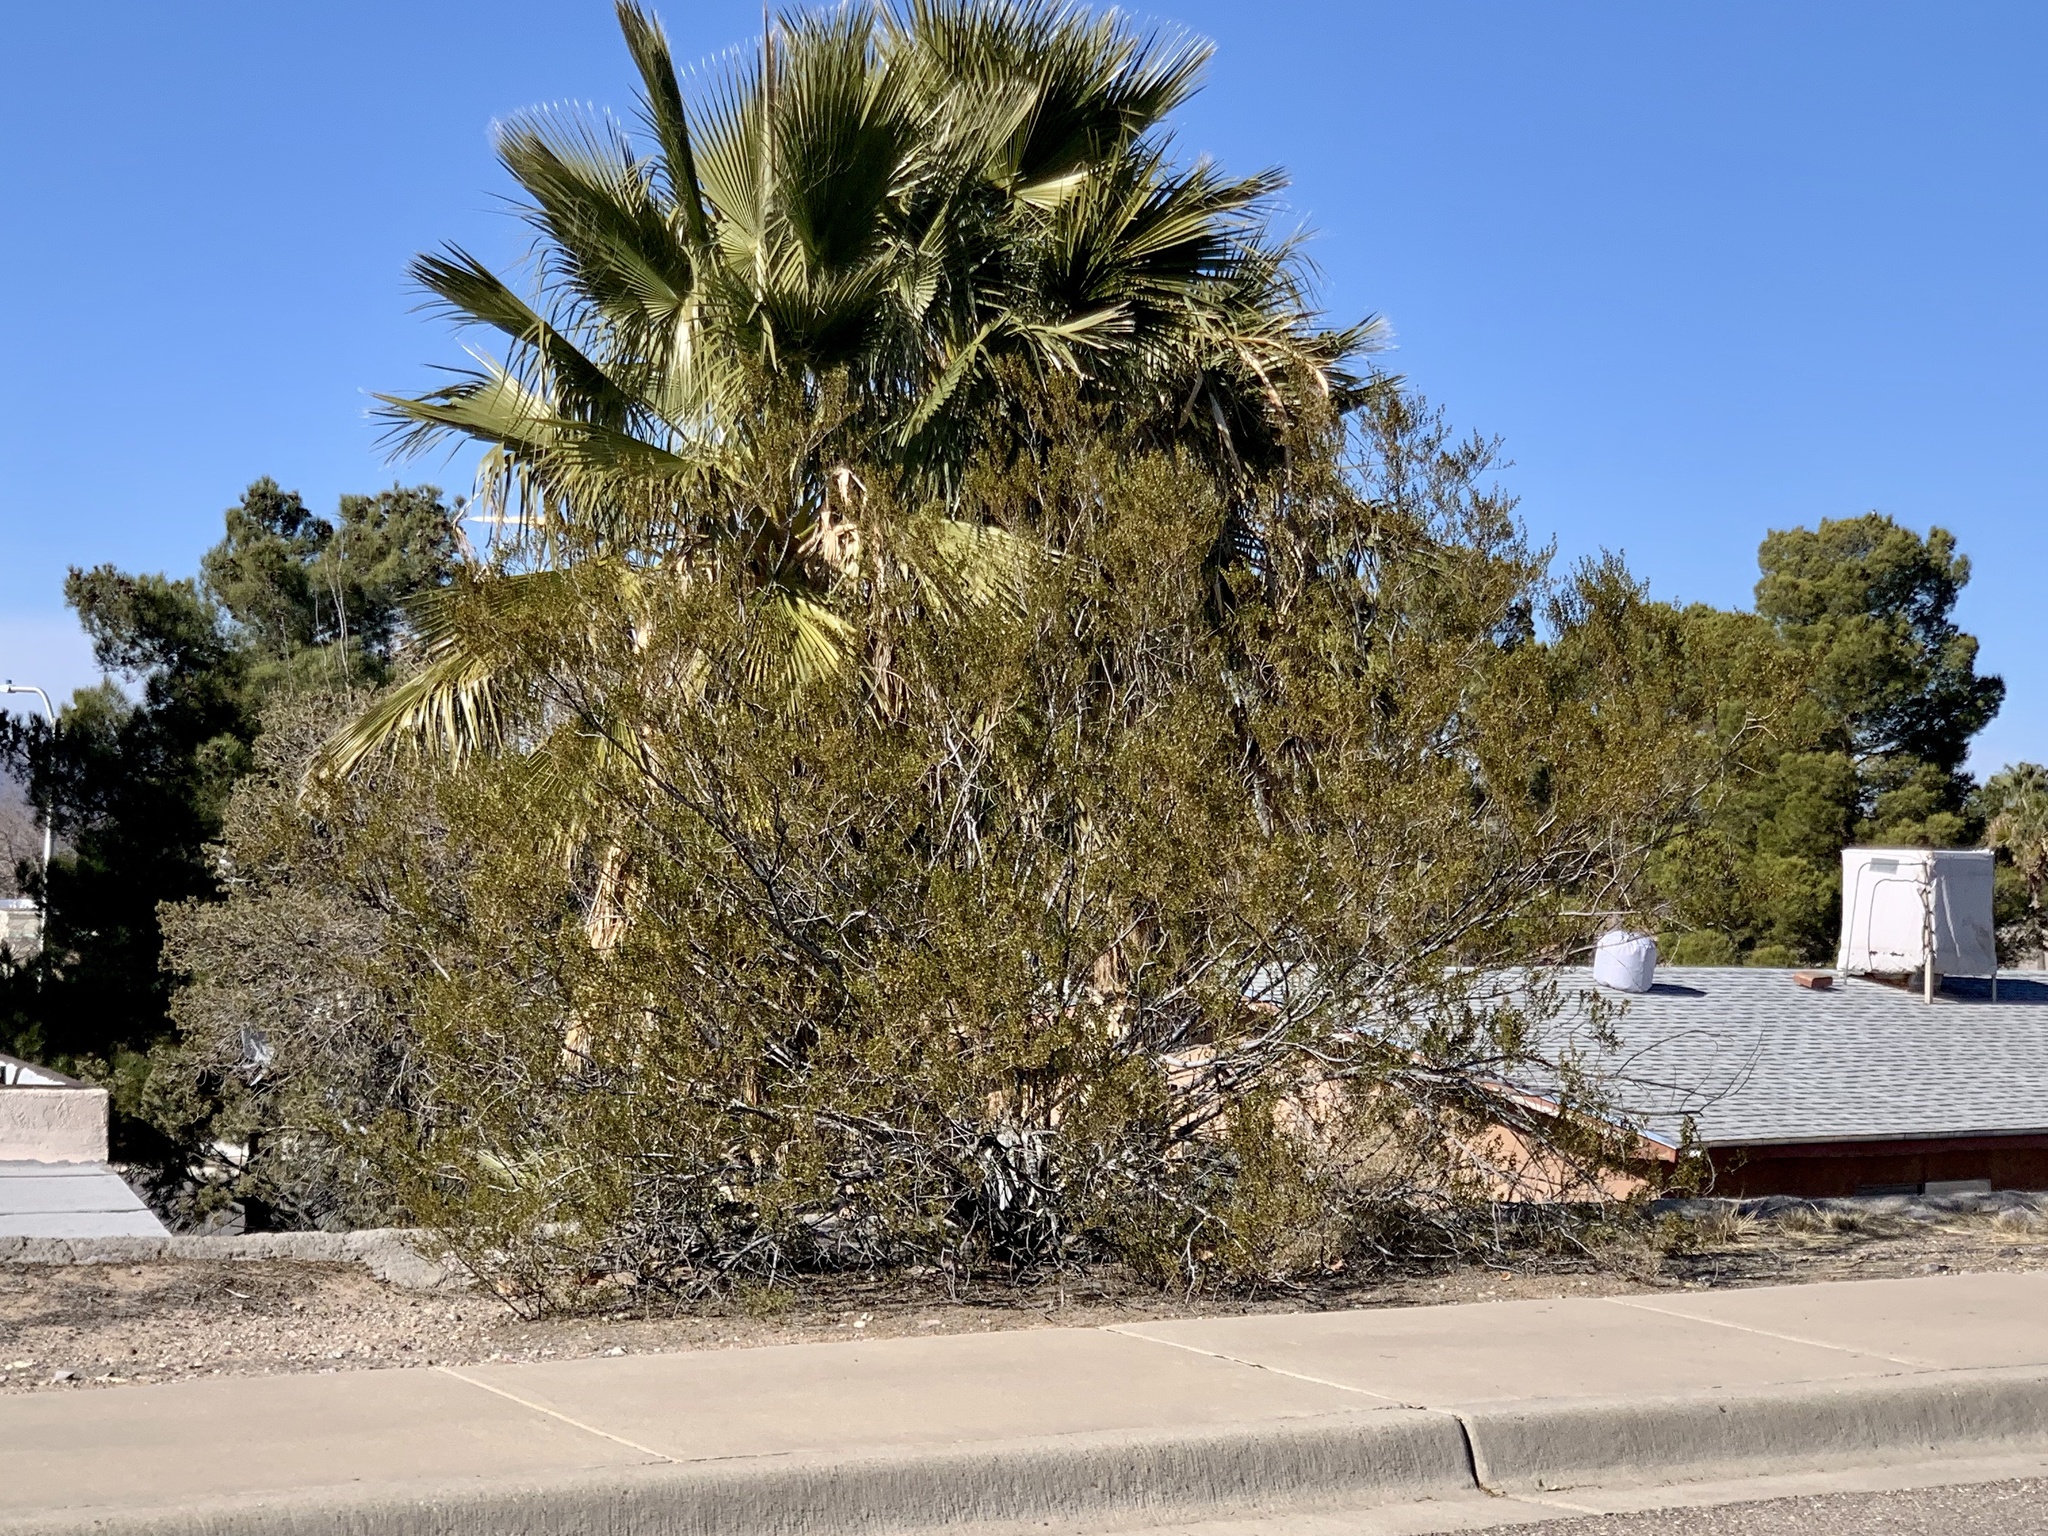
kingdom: Plantae
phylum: Tracheophyta
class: Magnoliopsida
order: Zygophyllales
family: Zygophyllaceae
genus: Larrea
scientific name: Larrea tridentata
